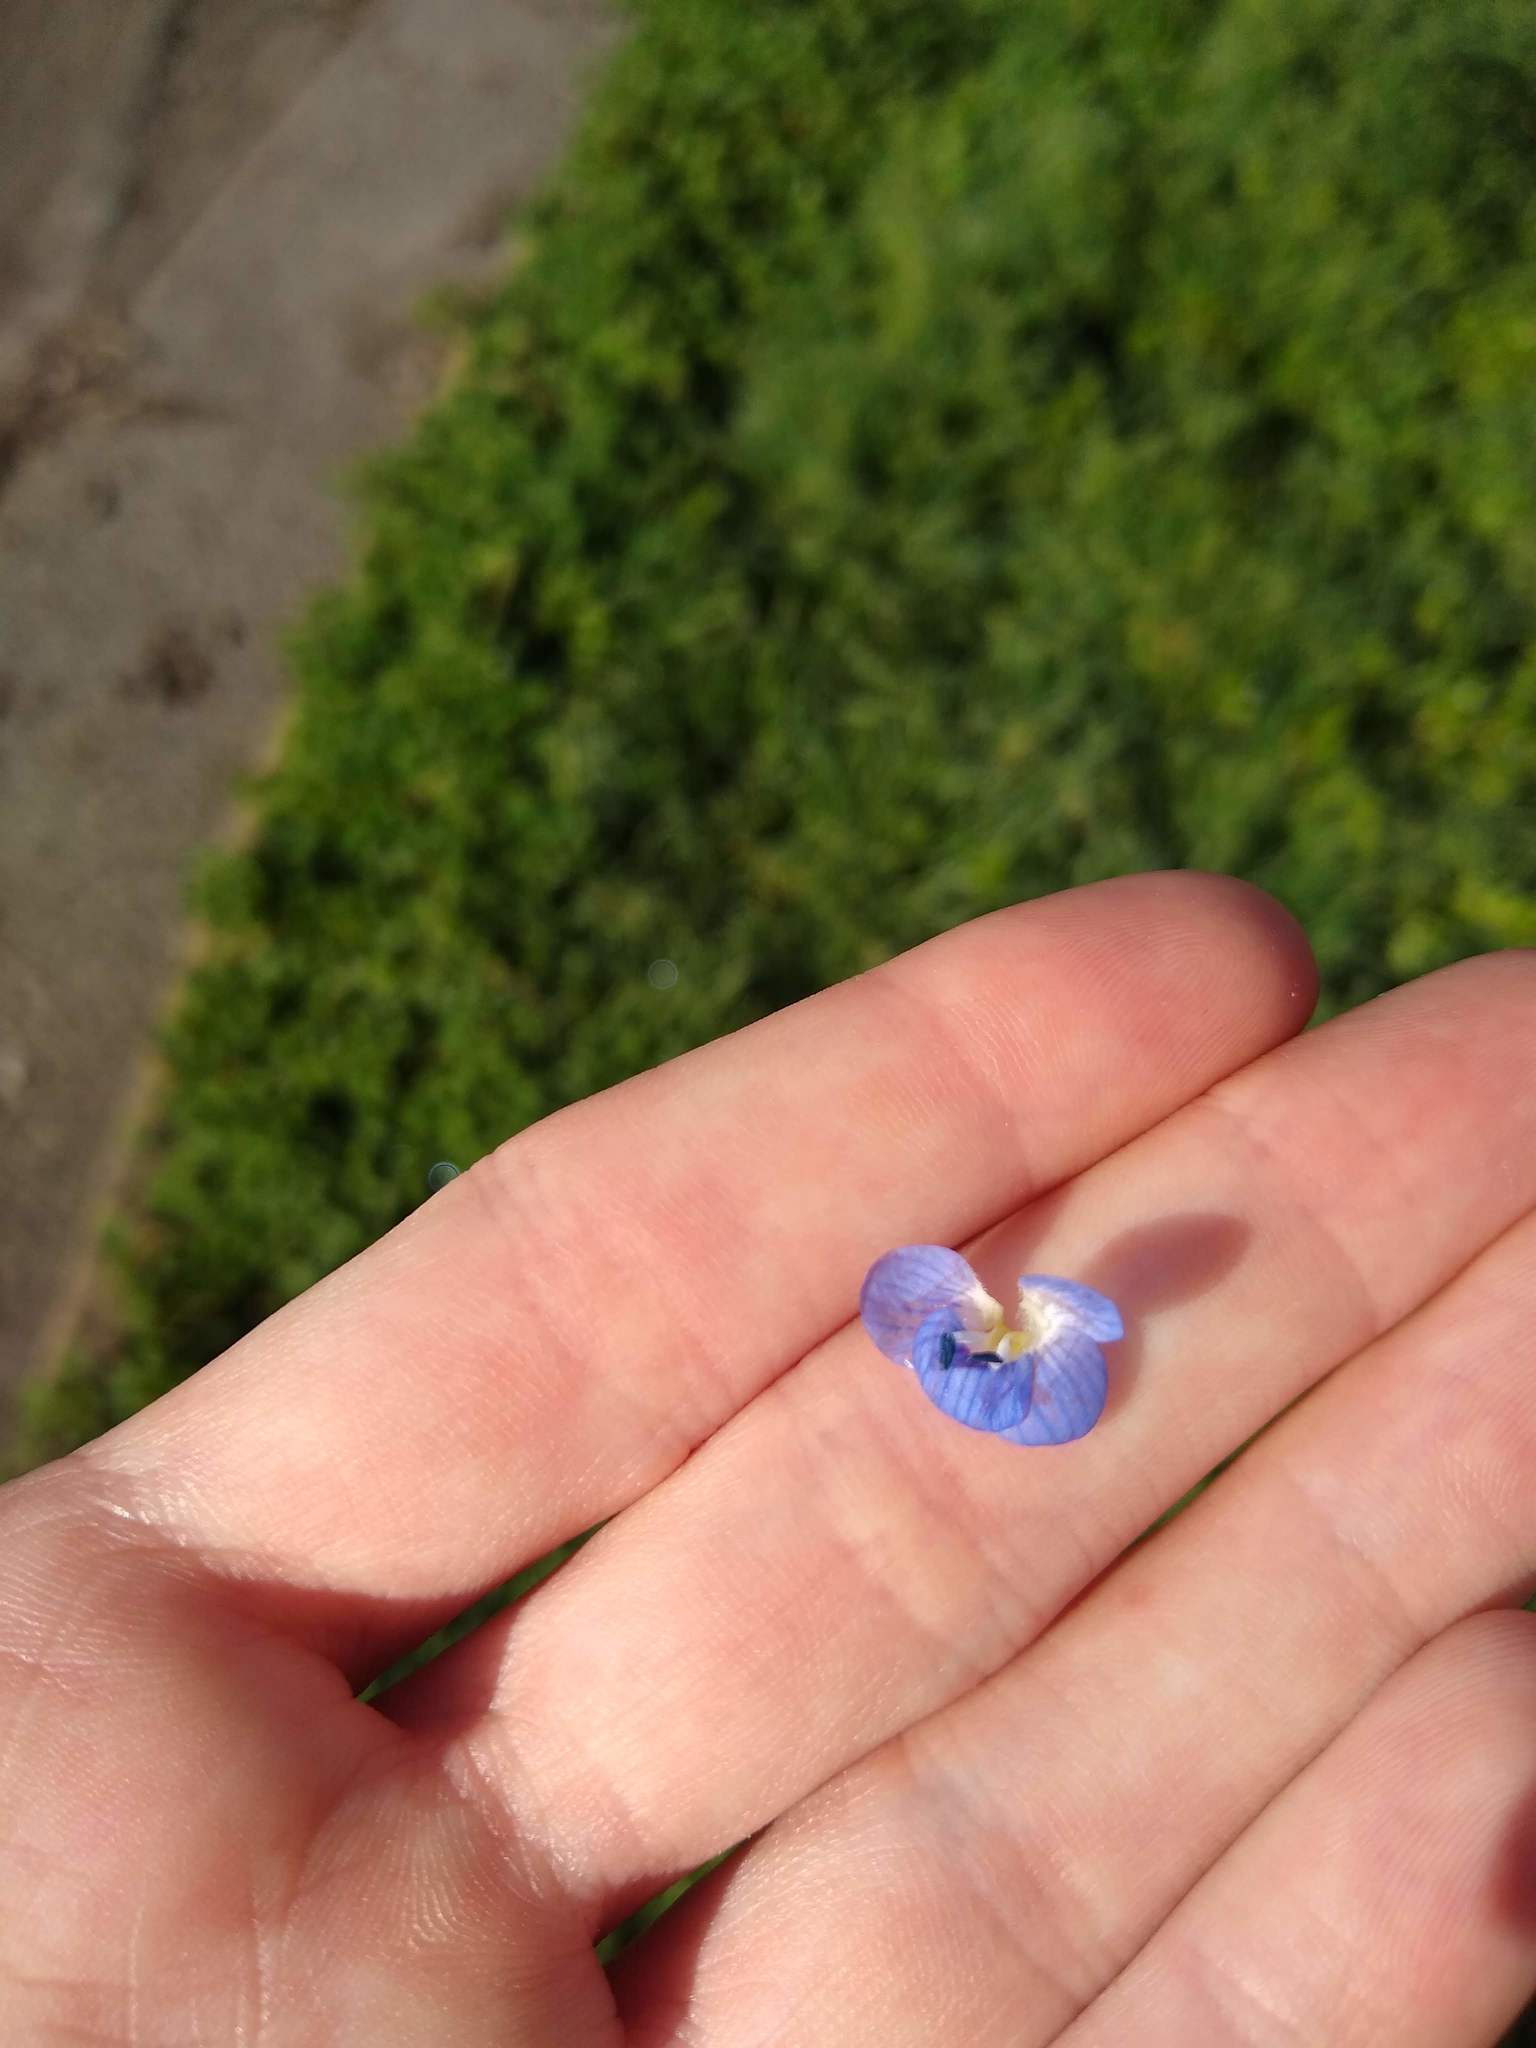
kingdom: Plantae
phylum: Tracheophyta
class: Magnoliopsida
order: Lamiales
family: Plantaginaceae
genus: Veronica
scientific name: Veronica persica
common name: Common field-speedwell
